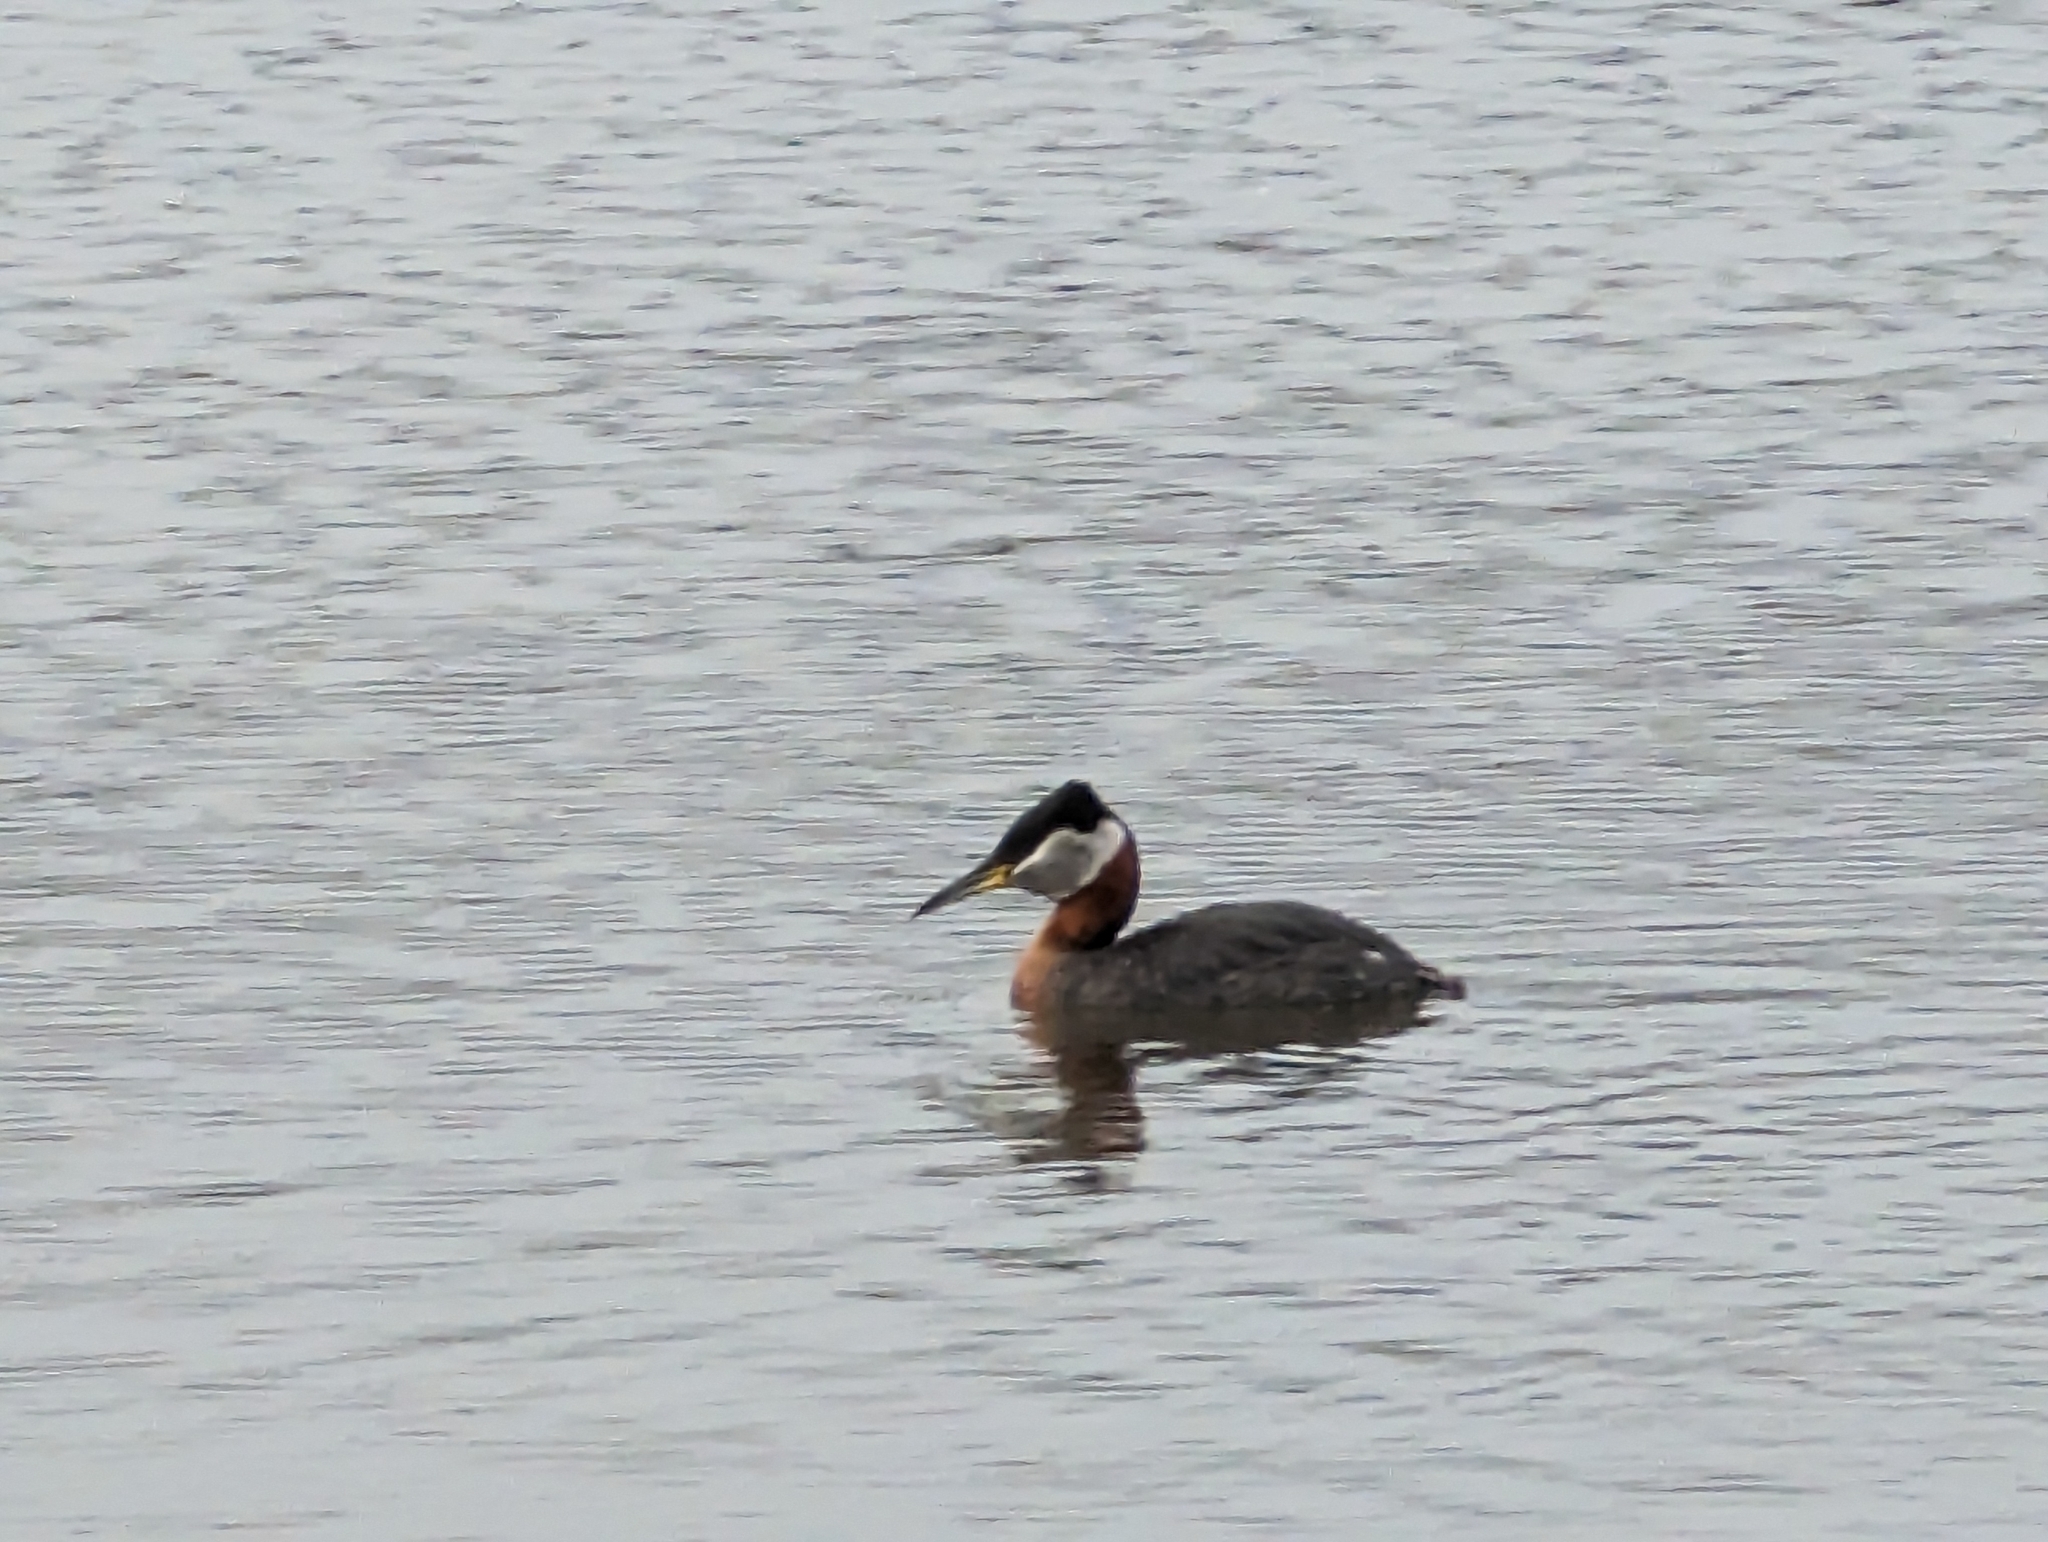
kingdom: Animalia
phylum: Chordata
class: Aves
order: Podicipediformes
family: Podicipedidae
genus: Podiceps
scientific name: Podiceps grisegena
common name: Red-necked grebe
